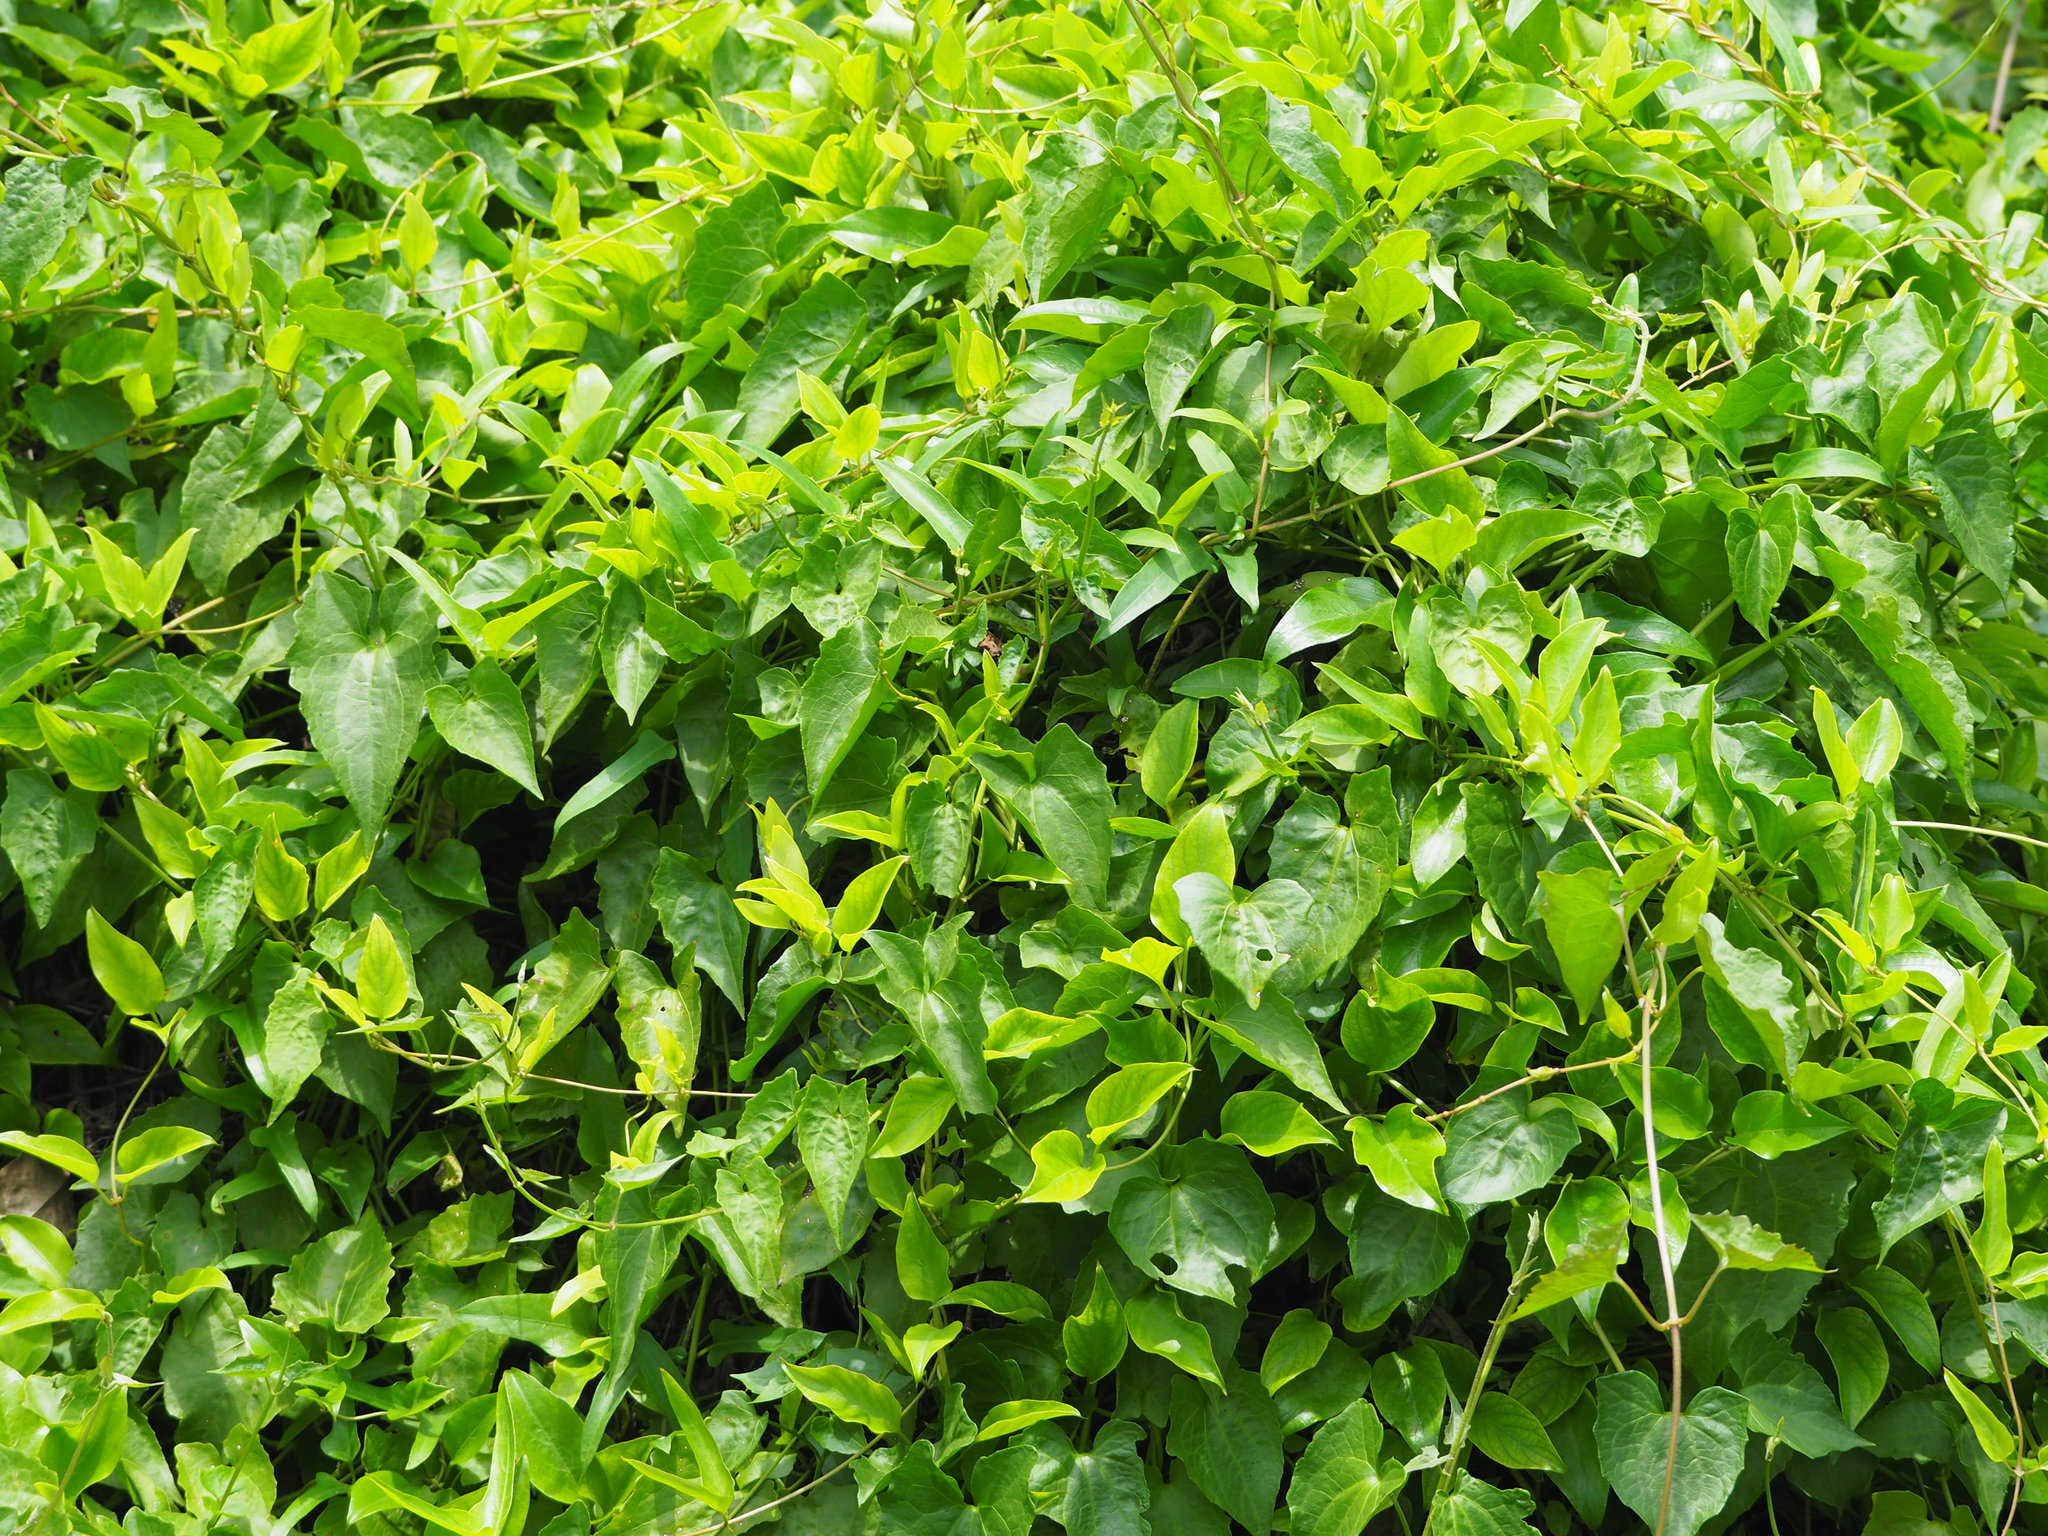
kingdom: Plantae
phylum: Tracheophyta
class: Magnoliopsida
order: Asterales
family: Asteraceae
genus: Mikania
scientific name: Mikania micrantha
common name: Mile-a-minute
